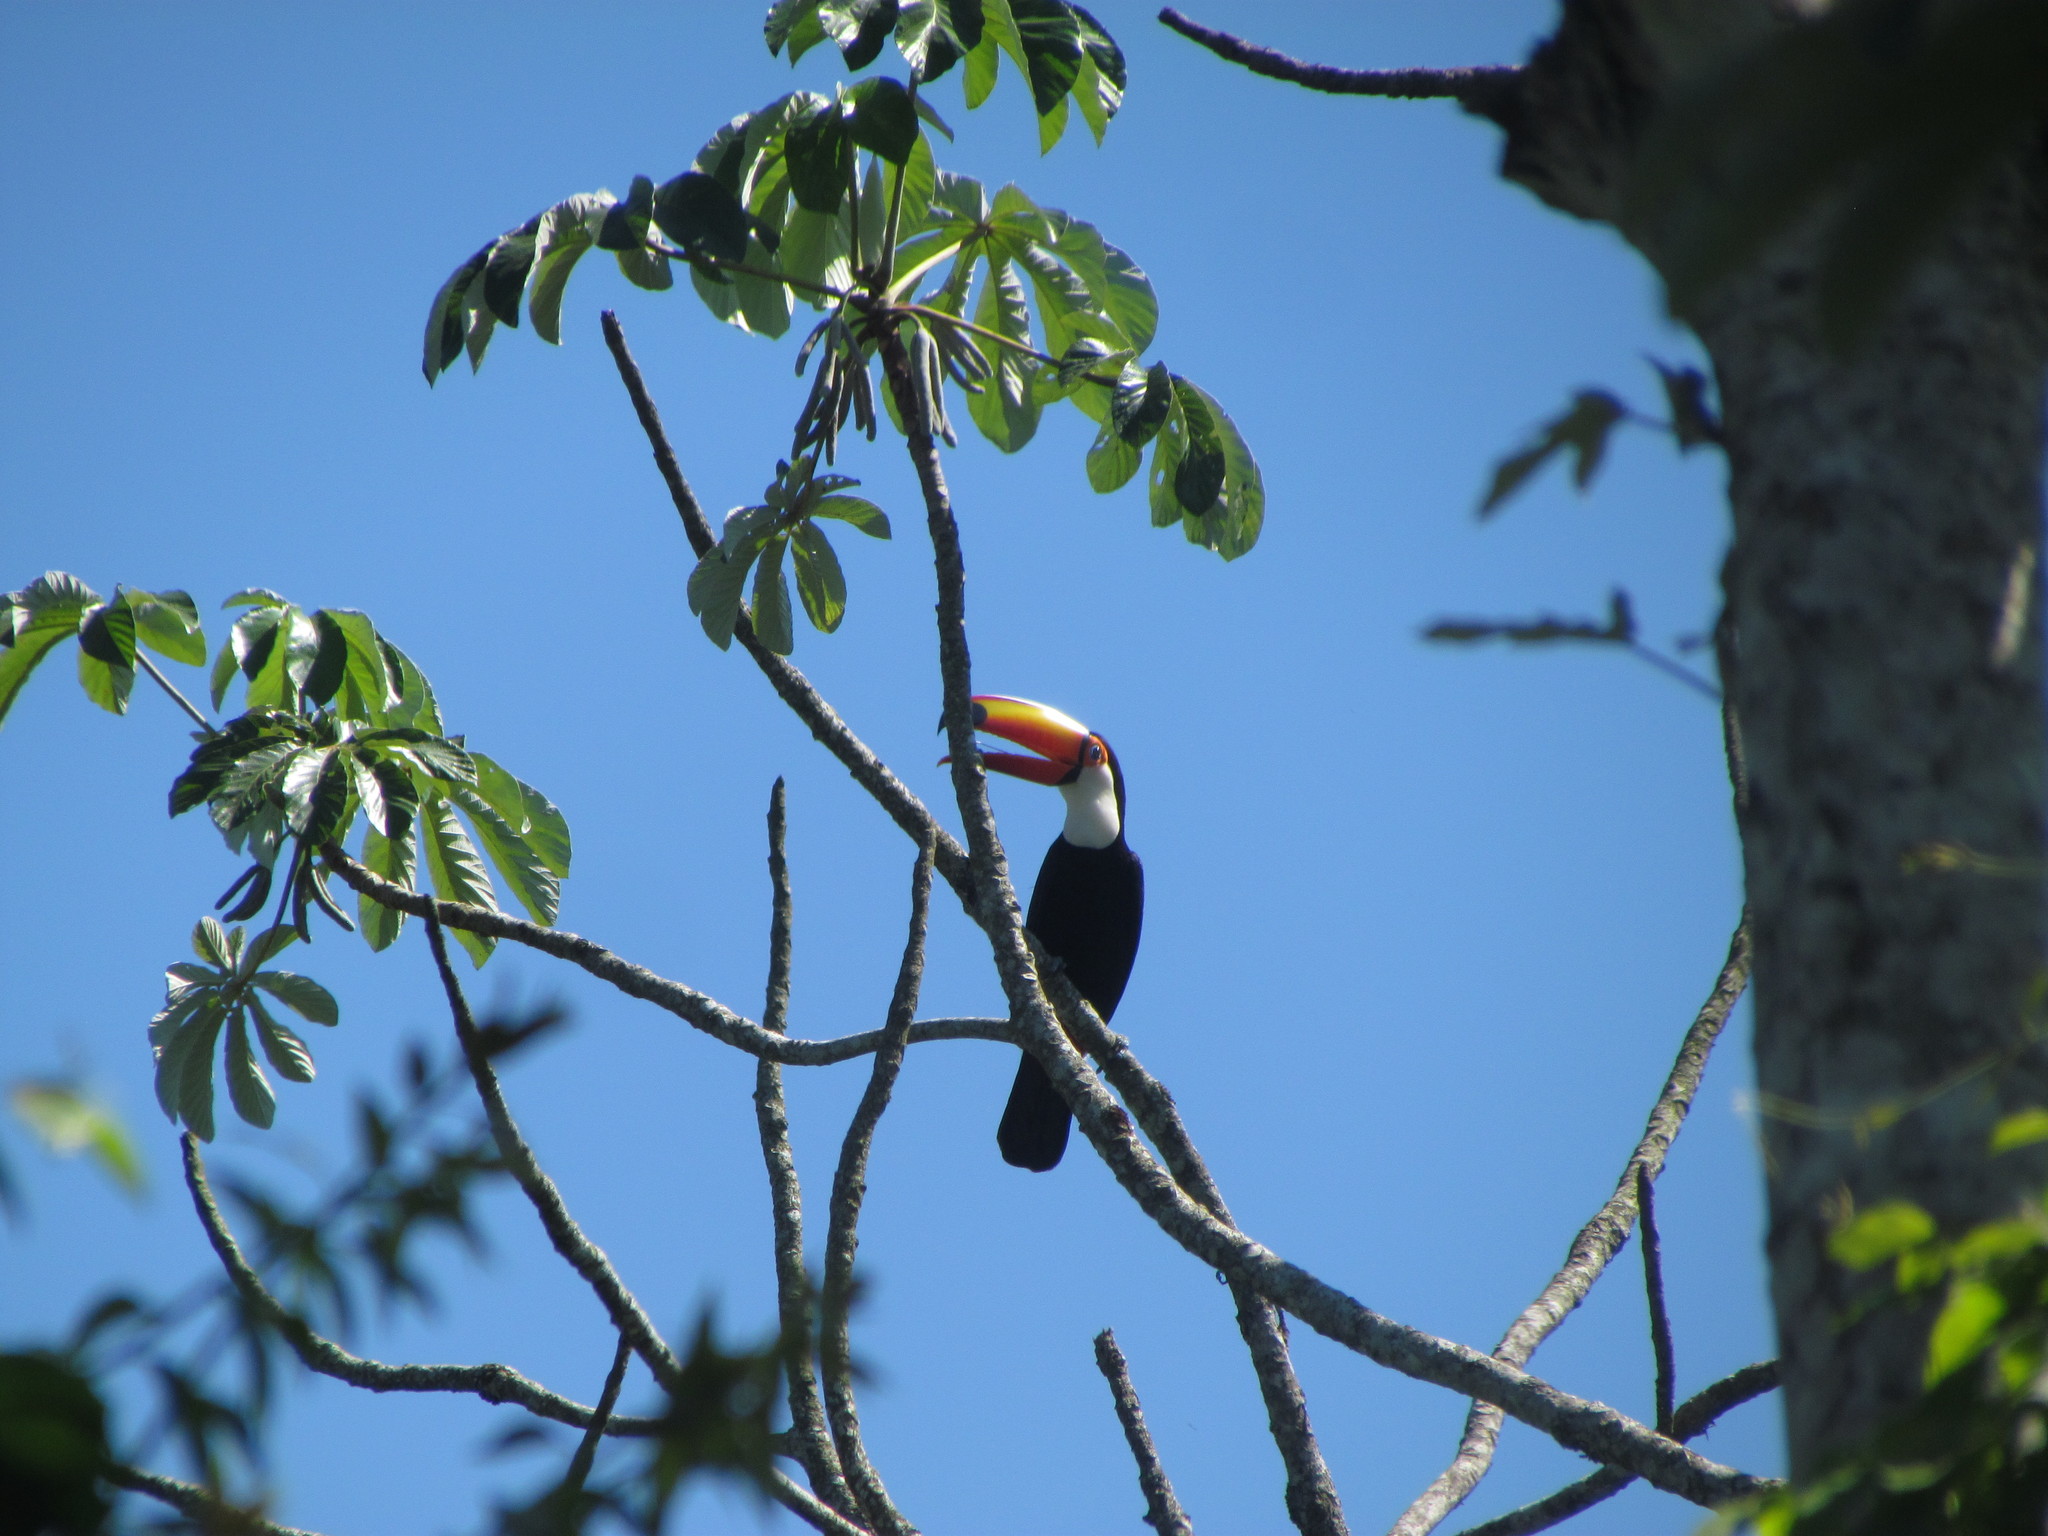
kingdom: Animalia
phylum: Chordata
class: Aves
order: Piciformes
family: Ramphastidae
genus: Ramphastos
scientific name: Ramphastos toco
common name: Toco toucan
